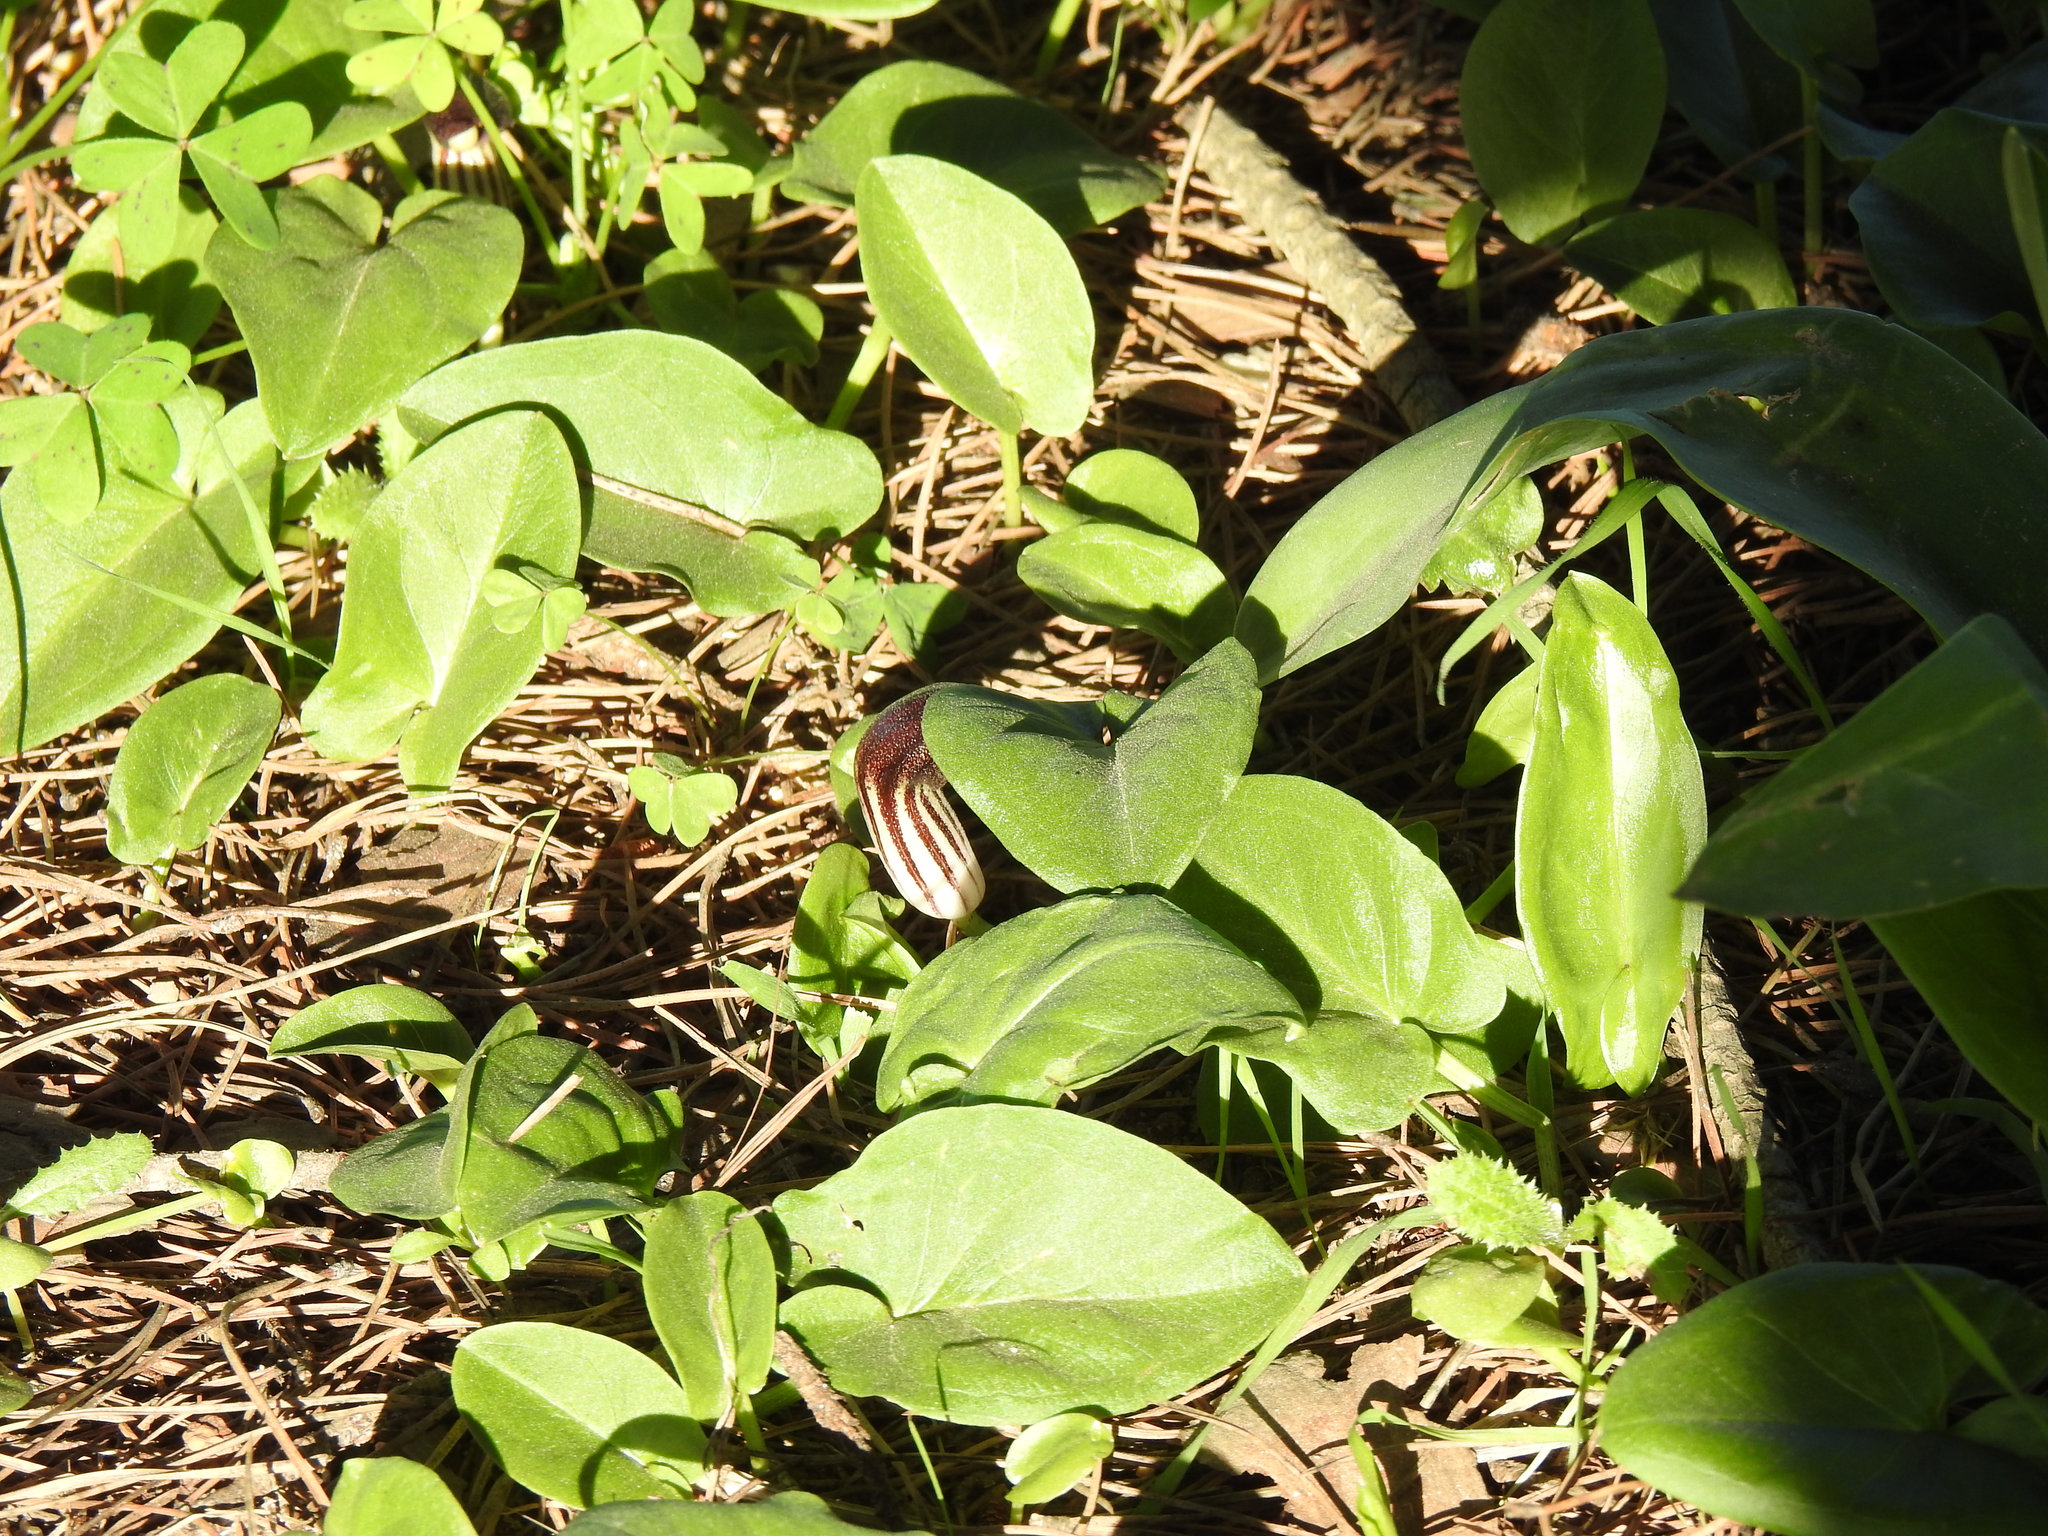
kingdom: Plantae
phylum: Tracheophyta
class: Liliopsida
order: Alismatales
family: Araceae
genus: Arisarum
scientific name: Arisarum simorrhinum
